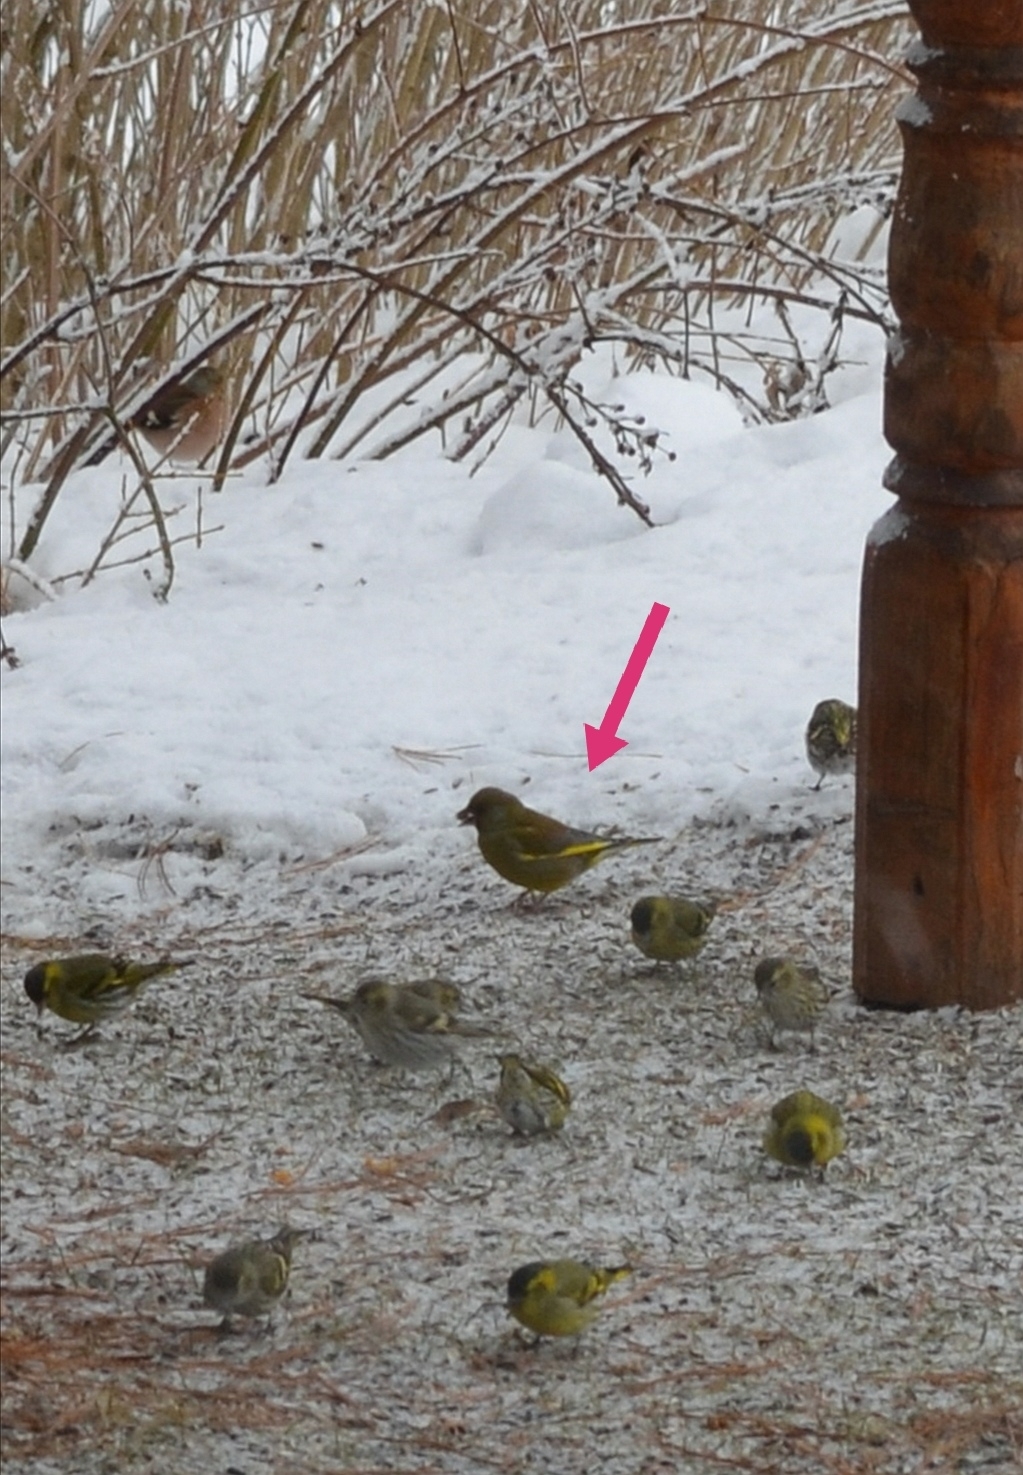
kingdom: Plantae
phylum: Tracheophyta
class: Liliopsida
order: Poales
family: Poaceae
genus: Chloris
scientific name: Chloris chloris
